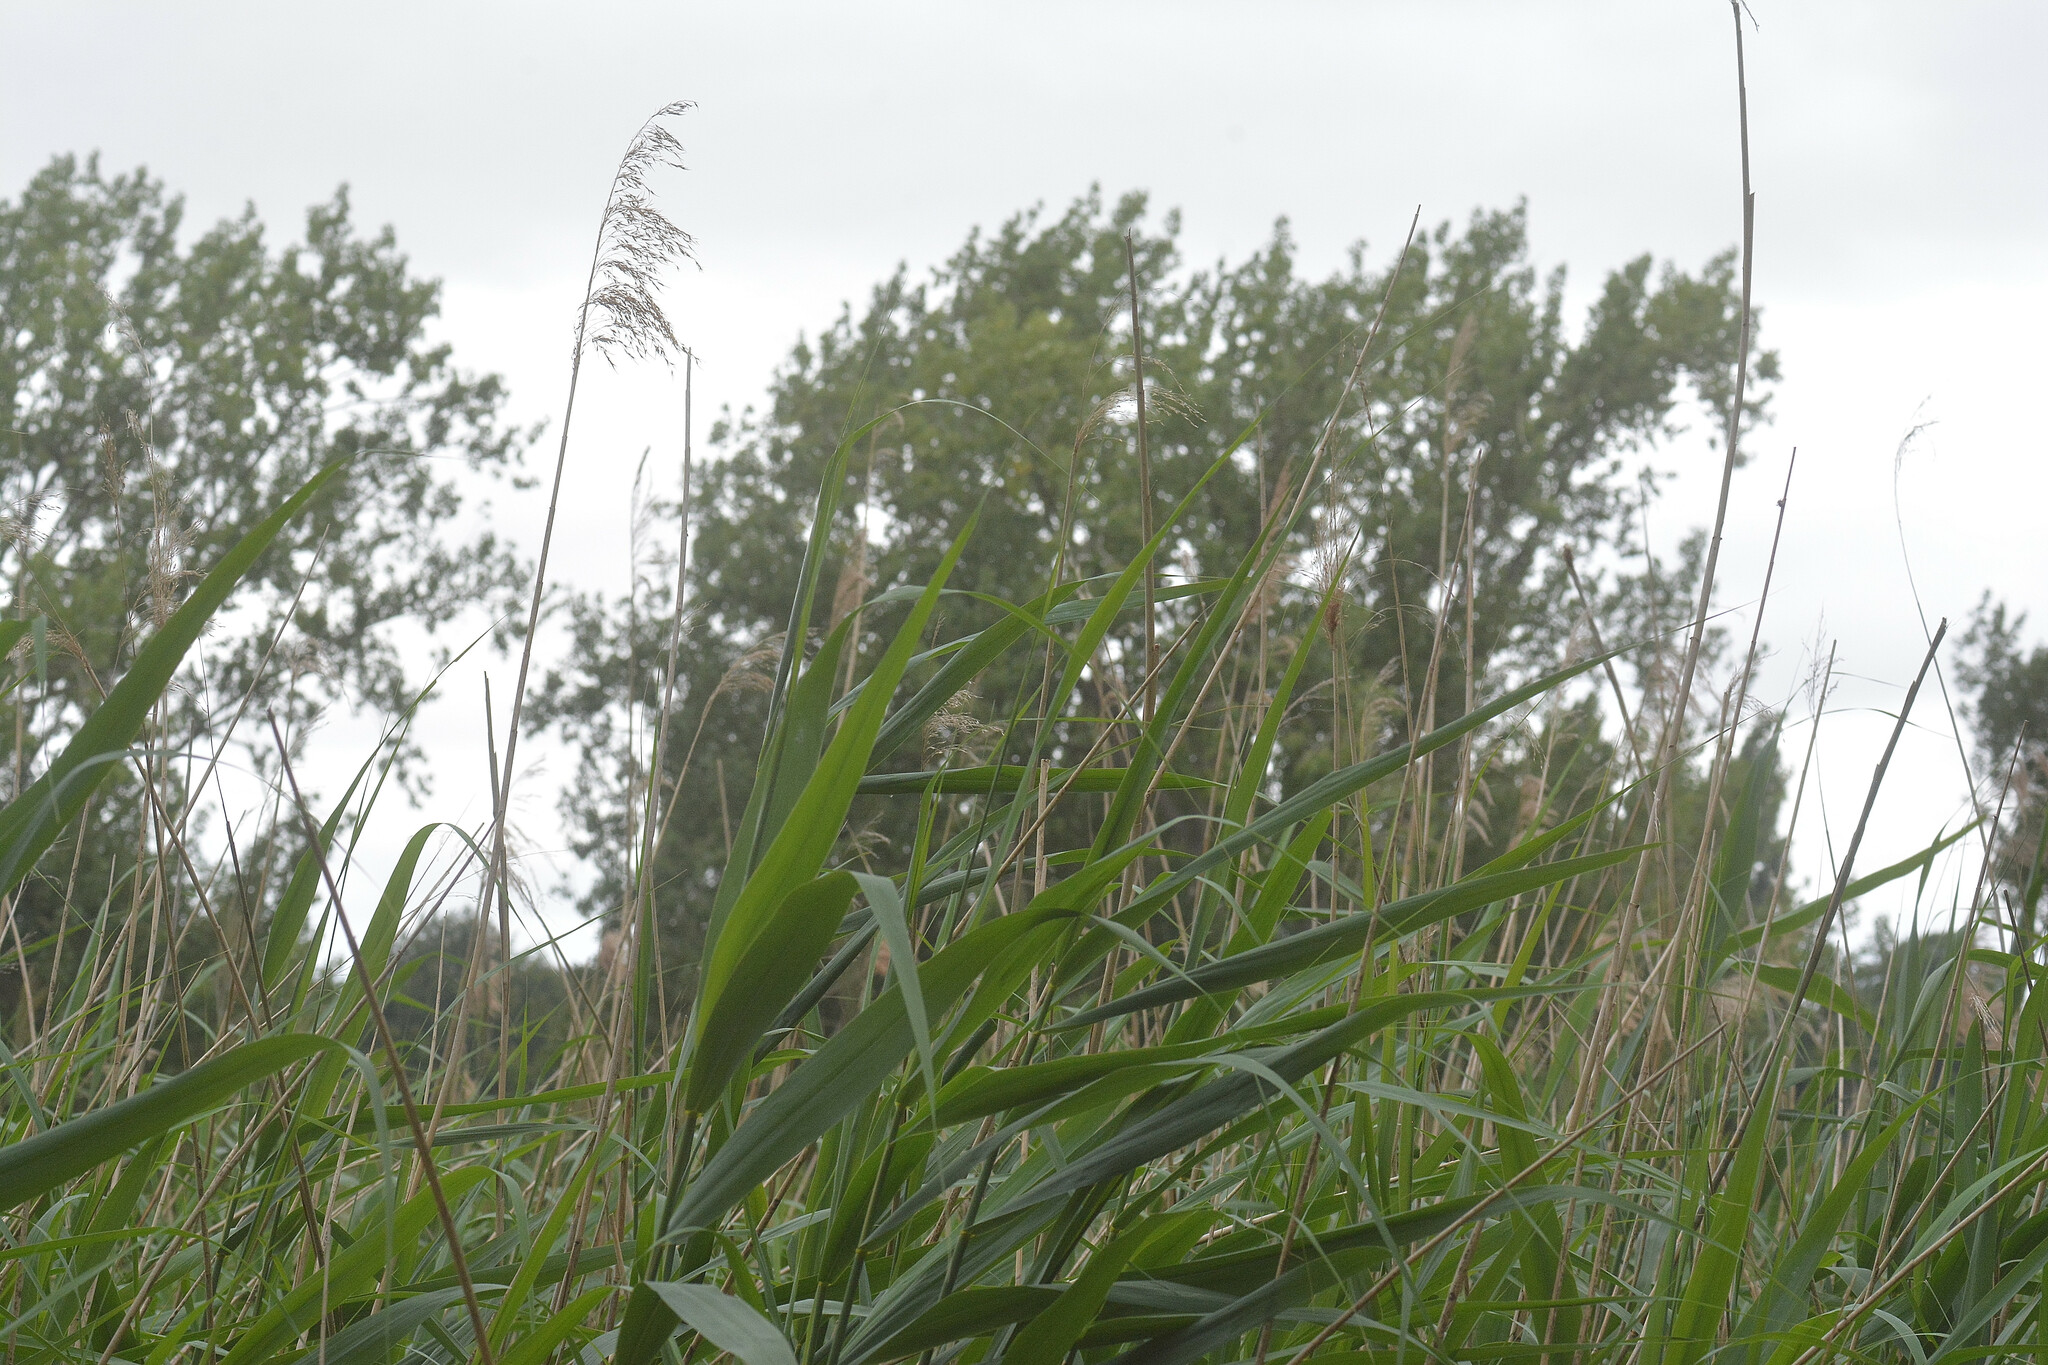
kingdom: Plantae
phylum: Tracheophyta
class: Liliopsida
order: Poales
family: Poaceae
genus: Phragmites
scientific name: Phragmites australis
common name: Common reed
